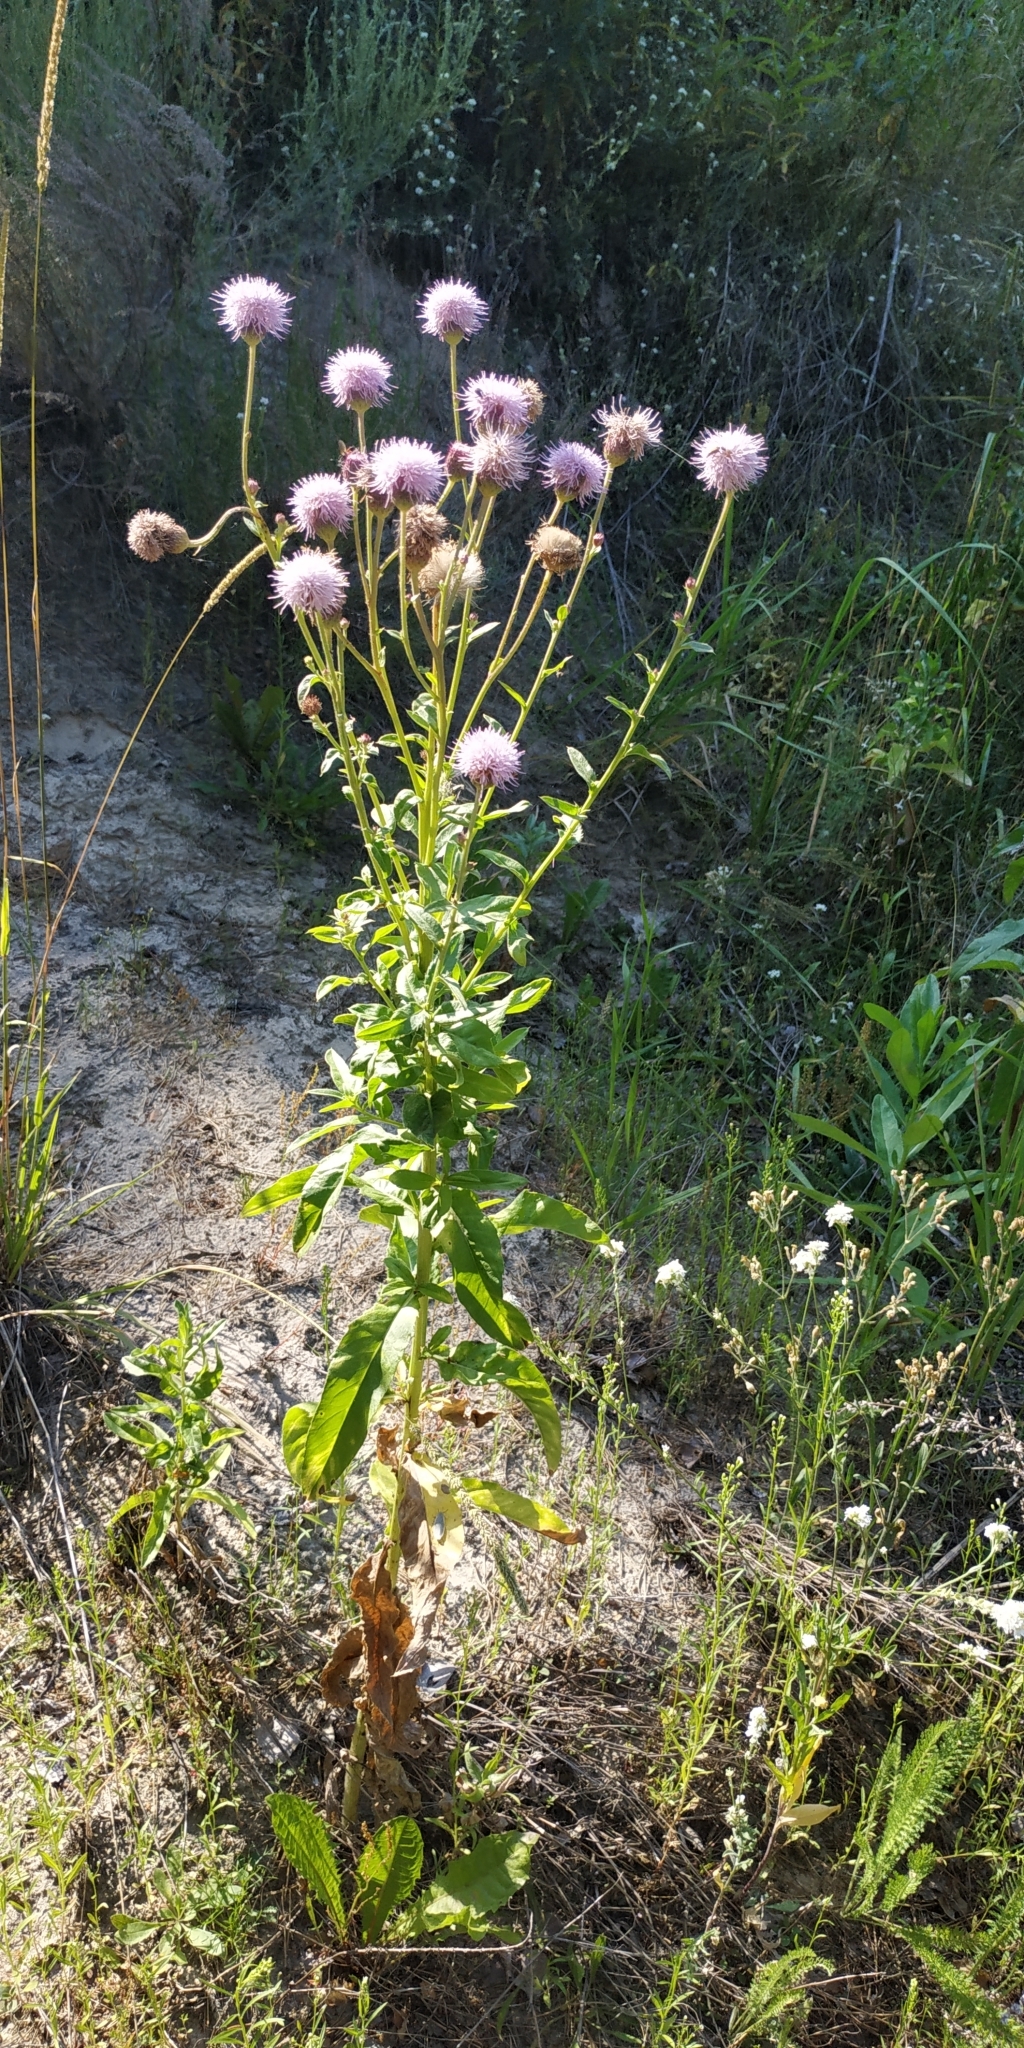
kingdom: Plantae
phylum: Tracheophyta
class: Magnoliopsida
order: Asterales
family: Asteraceae
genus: Cirsium
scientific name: Cirsium arvense
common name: Creeping thistle
